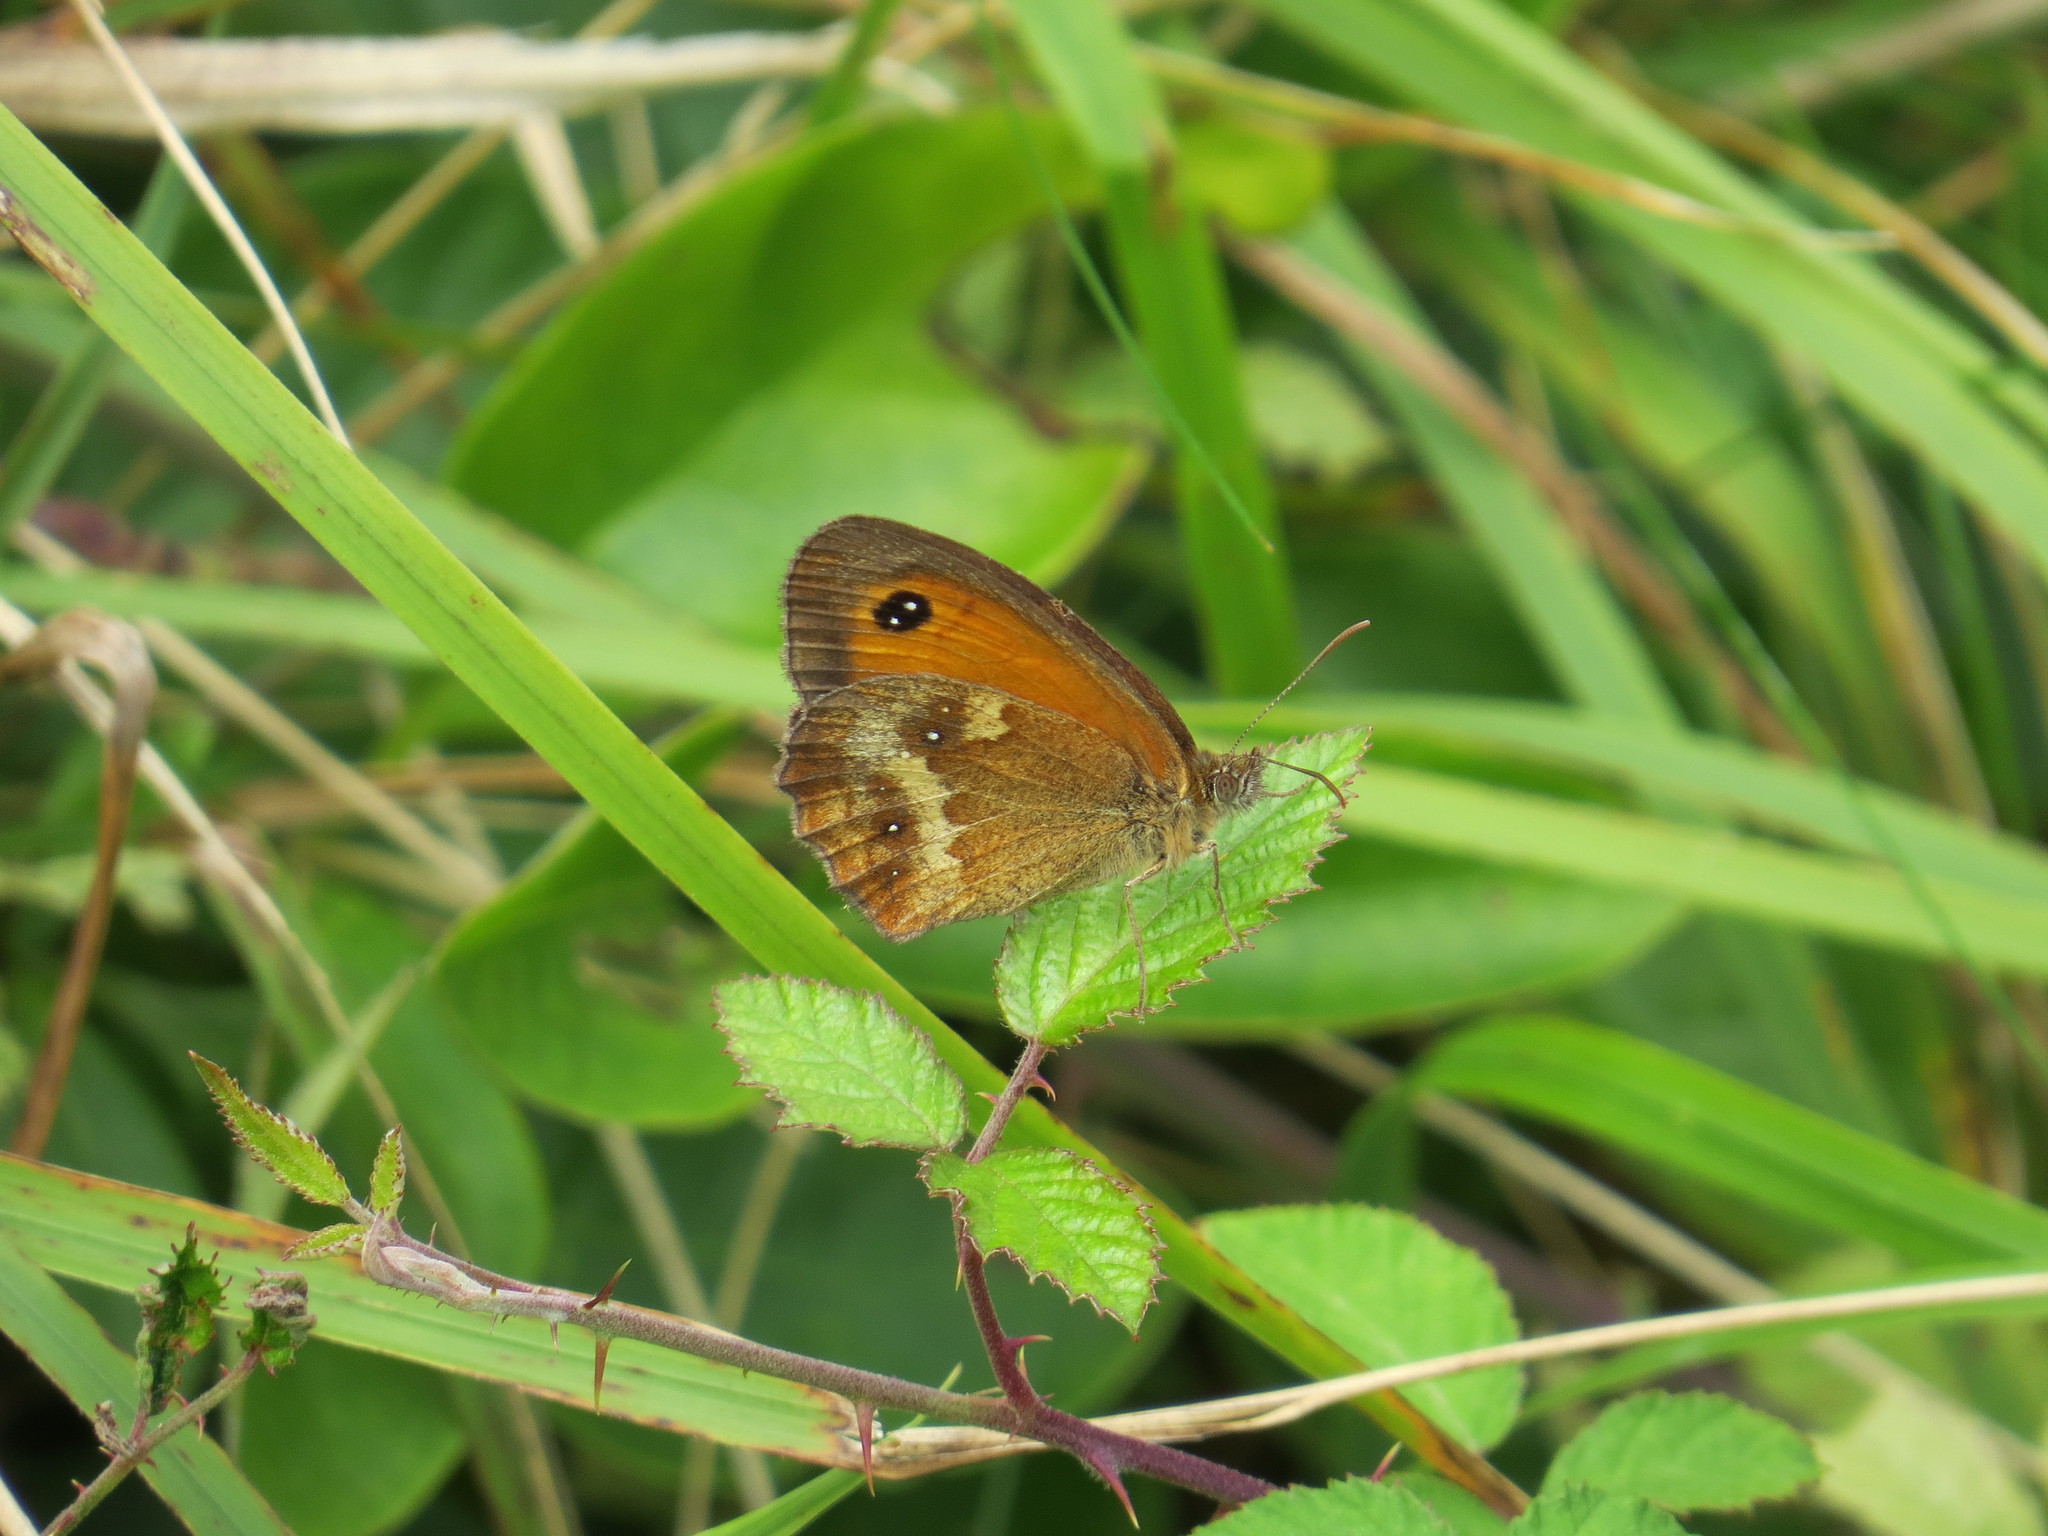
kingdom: Animalia
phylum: Arthropoda
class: Insecta
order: Lepidoptera
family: Nymphalidae
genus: Pyronia
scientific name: Pyronia tithonus
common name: Gatekeeper
